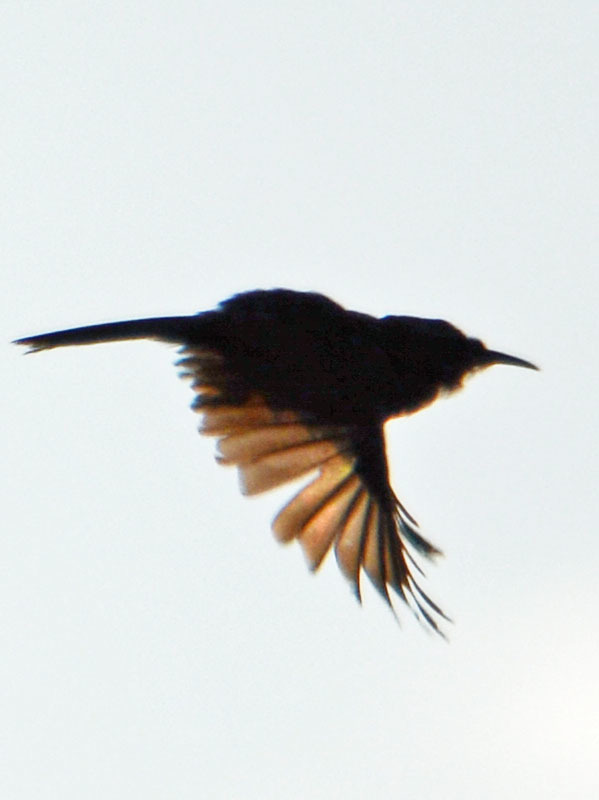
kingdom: Animalia
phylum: Chordata
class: Aves
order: Passeriformes
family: Troglodytidae
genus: Thryomanes
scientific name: Thryomanes bewickii
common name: Bewick's wren
